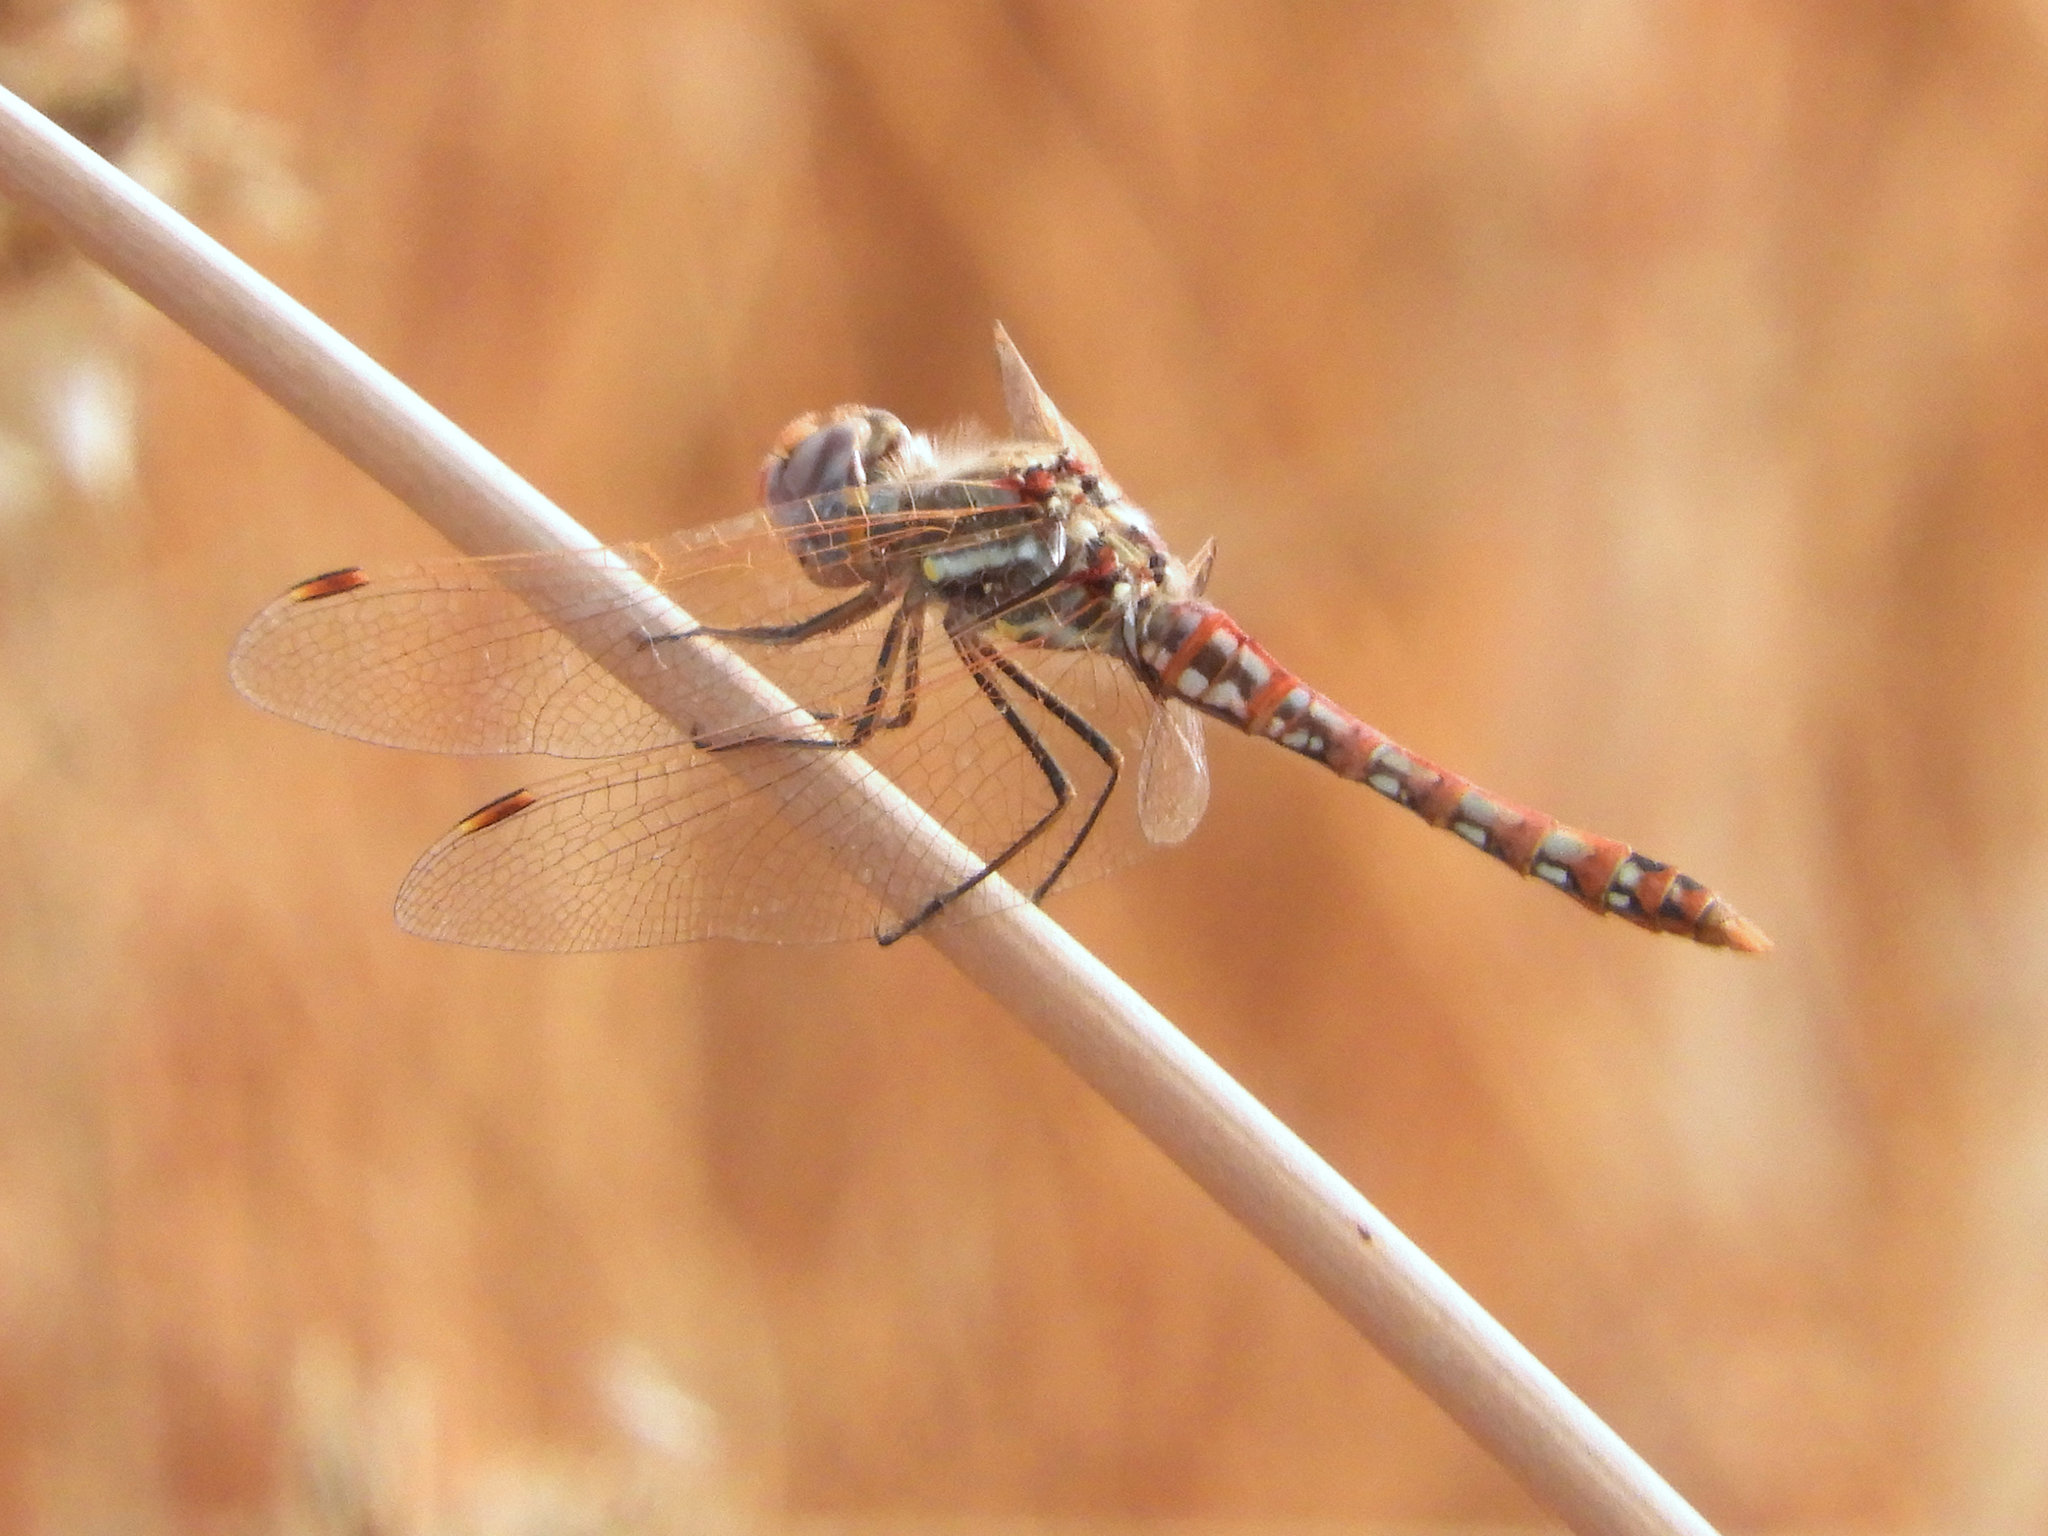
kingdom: Animalia
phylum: Arthropoda
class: Insecta
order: Odonata
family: Libellulidae
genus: Sympetrum
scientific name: Sympetrum corruptum
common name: Variegated meadowhawk
